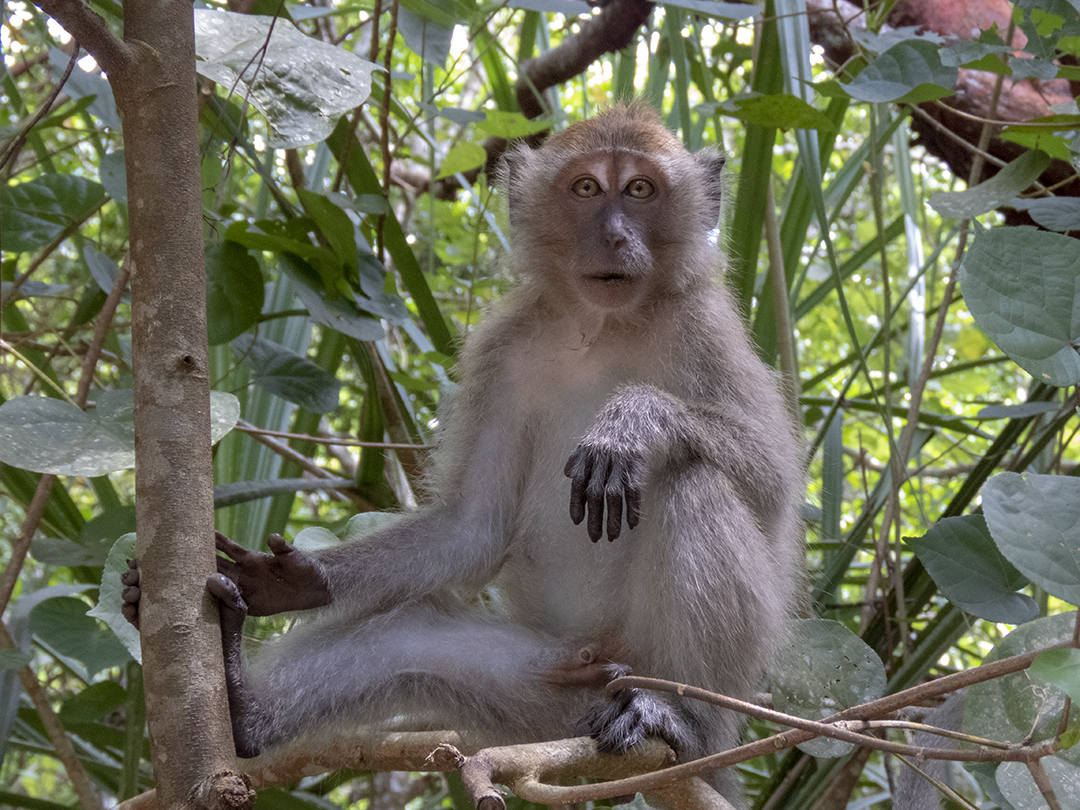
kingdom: Animalia
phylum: Chordata
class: Mammalia
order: Primates
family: Cercopithecidae
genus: Macaca
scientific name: Macaca fascicularis
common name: Crab-eating macaque
